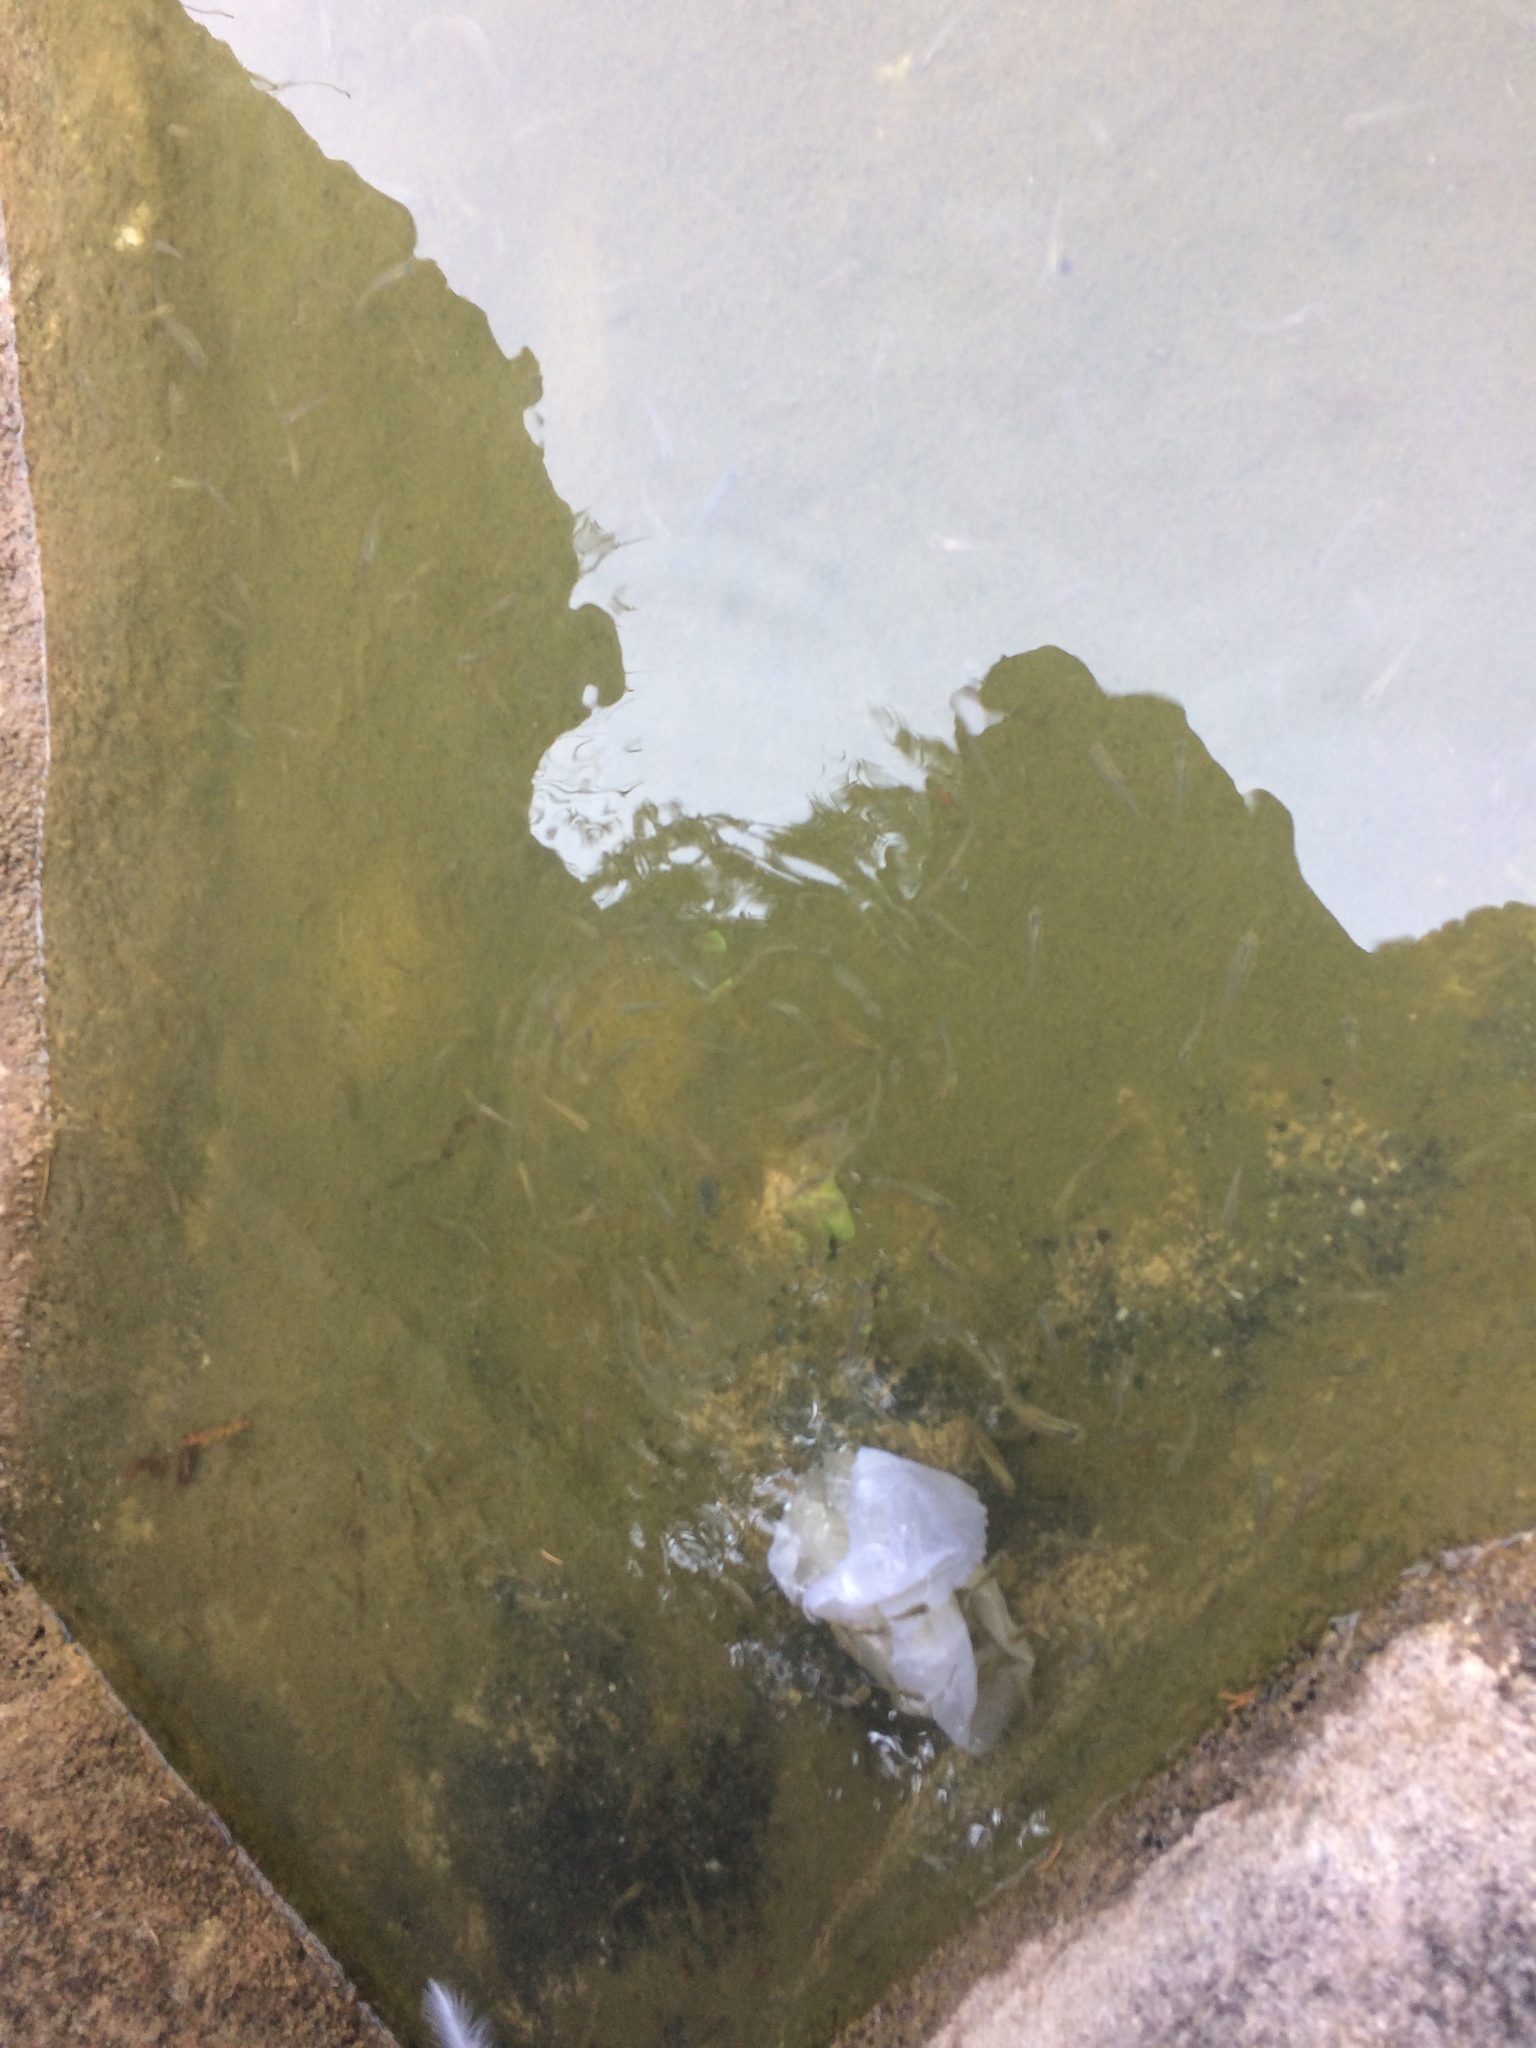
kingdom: Animalia
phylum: Chordata
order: Cyprinodontiformes
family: Poeciliidae
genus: Gambusia
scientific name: Gambusia affinis
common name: Mosquitofish
